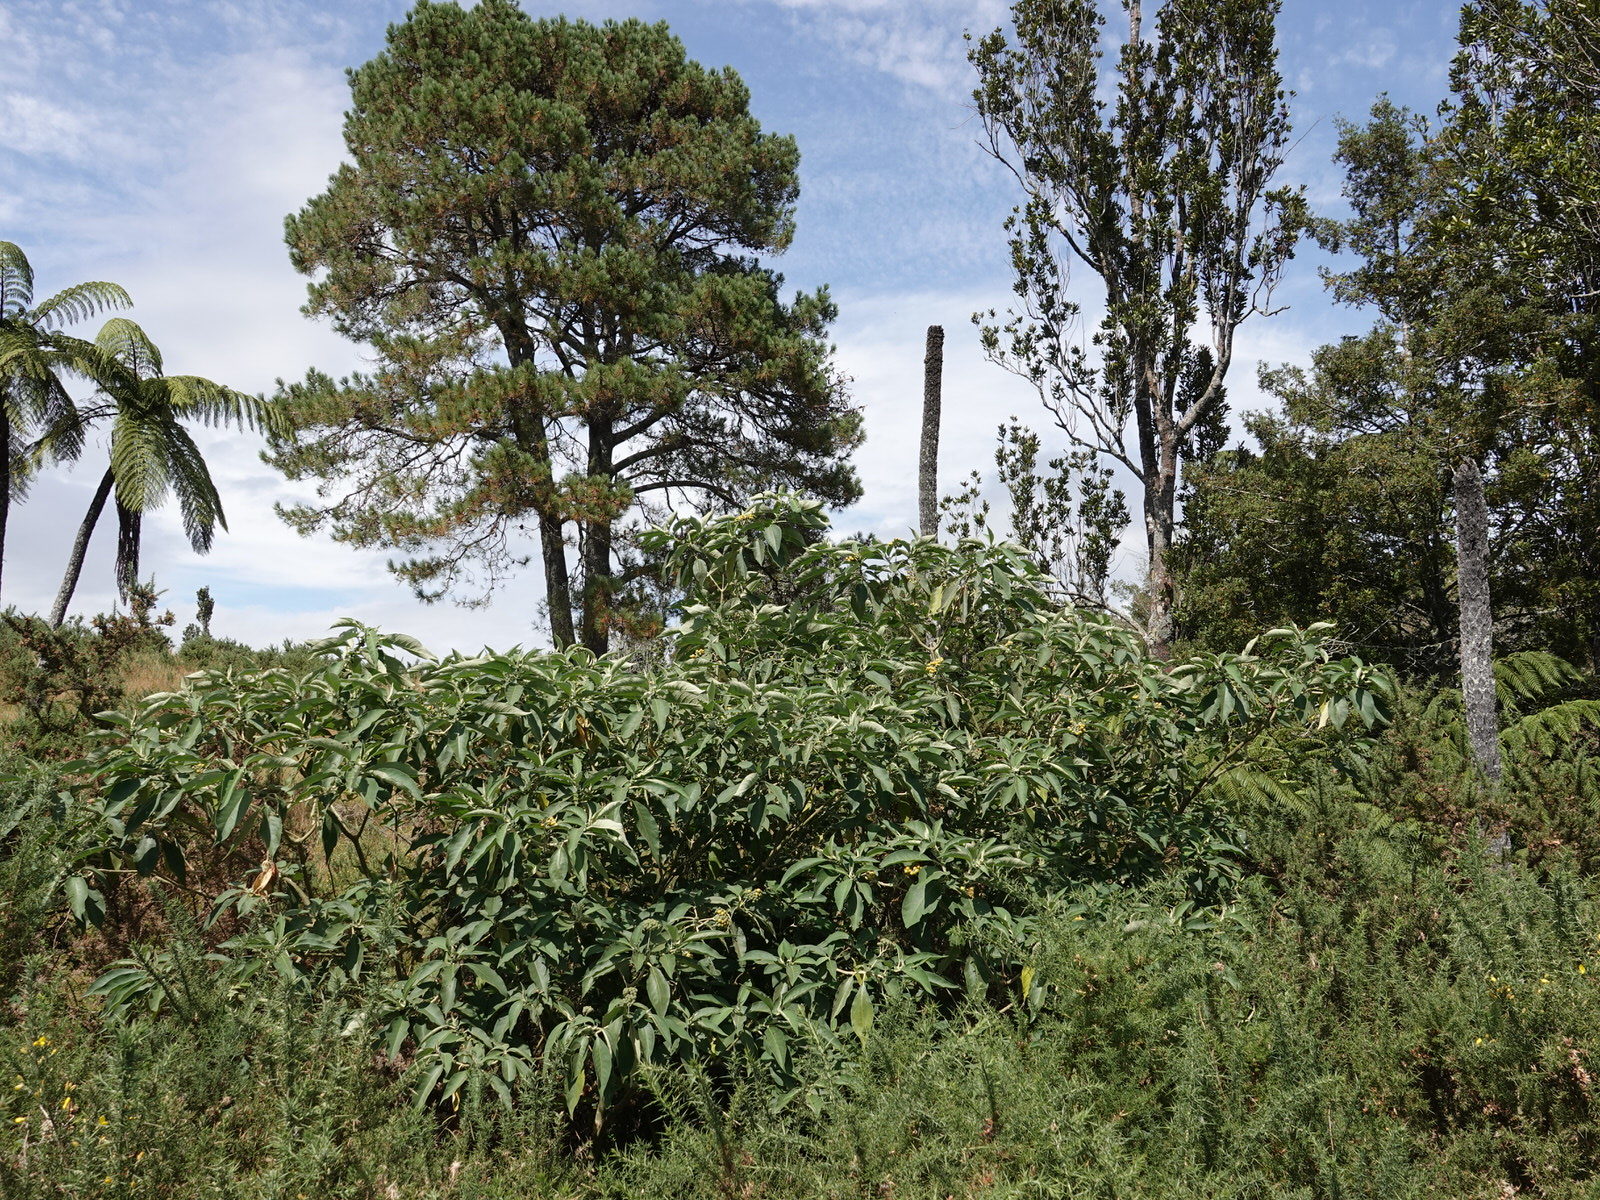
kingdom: Plantae
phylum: Tracheophyta
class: Magnoliopsida
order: Solanales
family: Solanaceae
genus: Solanum
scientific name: Solanum mauritianum
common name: Earleaf nightshade
